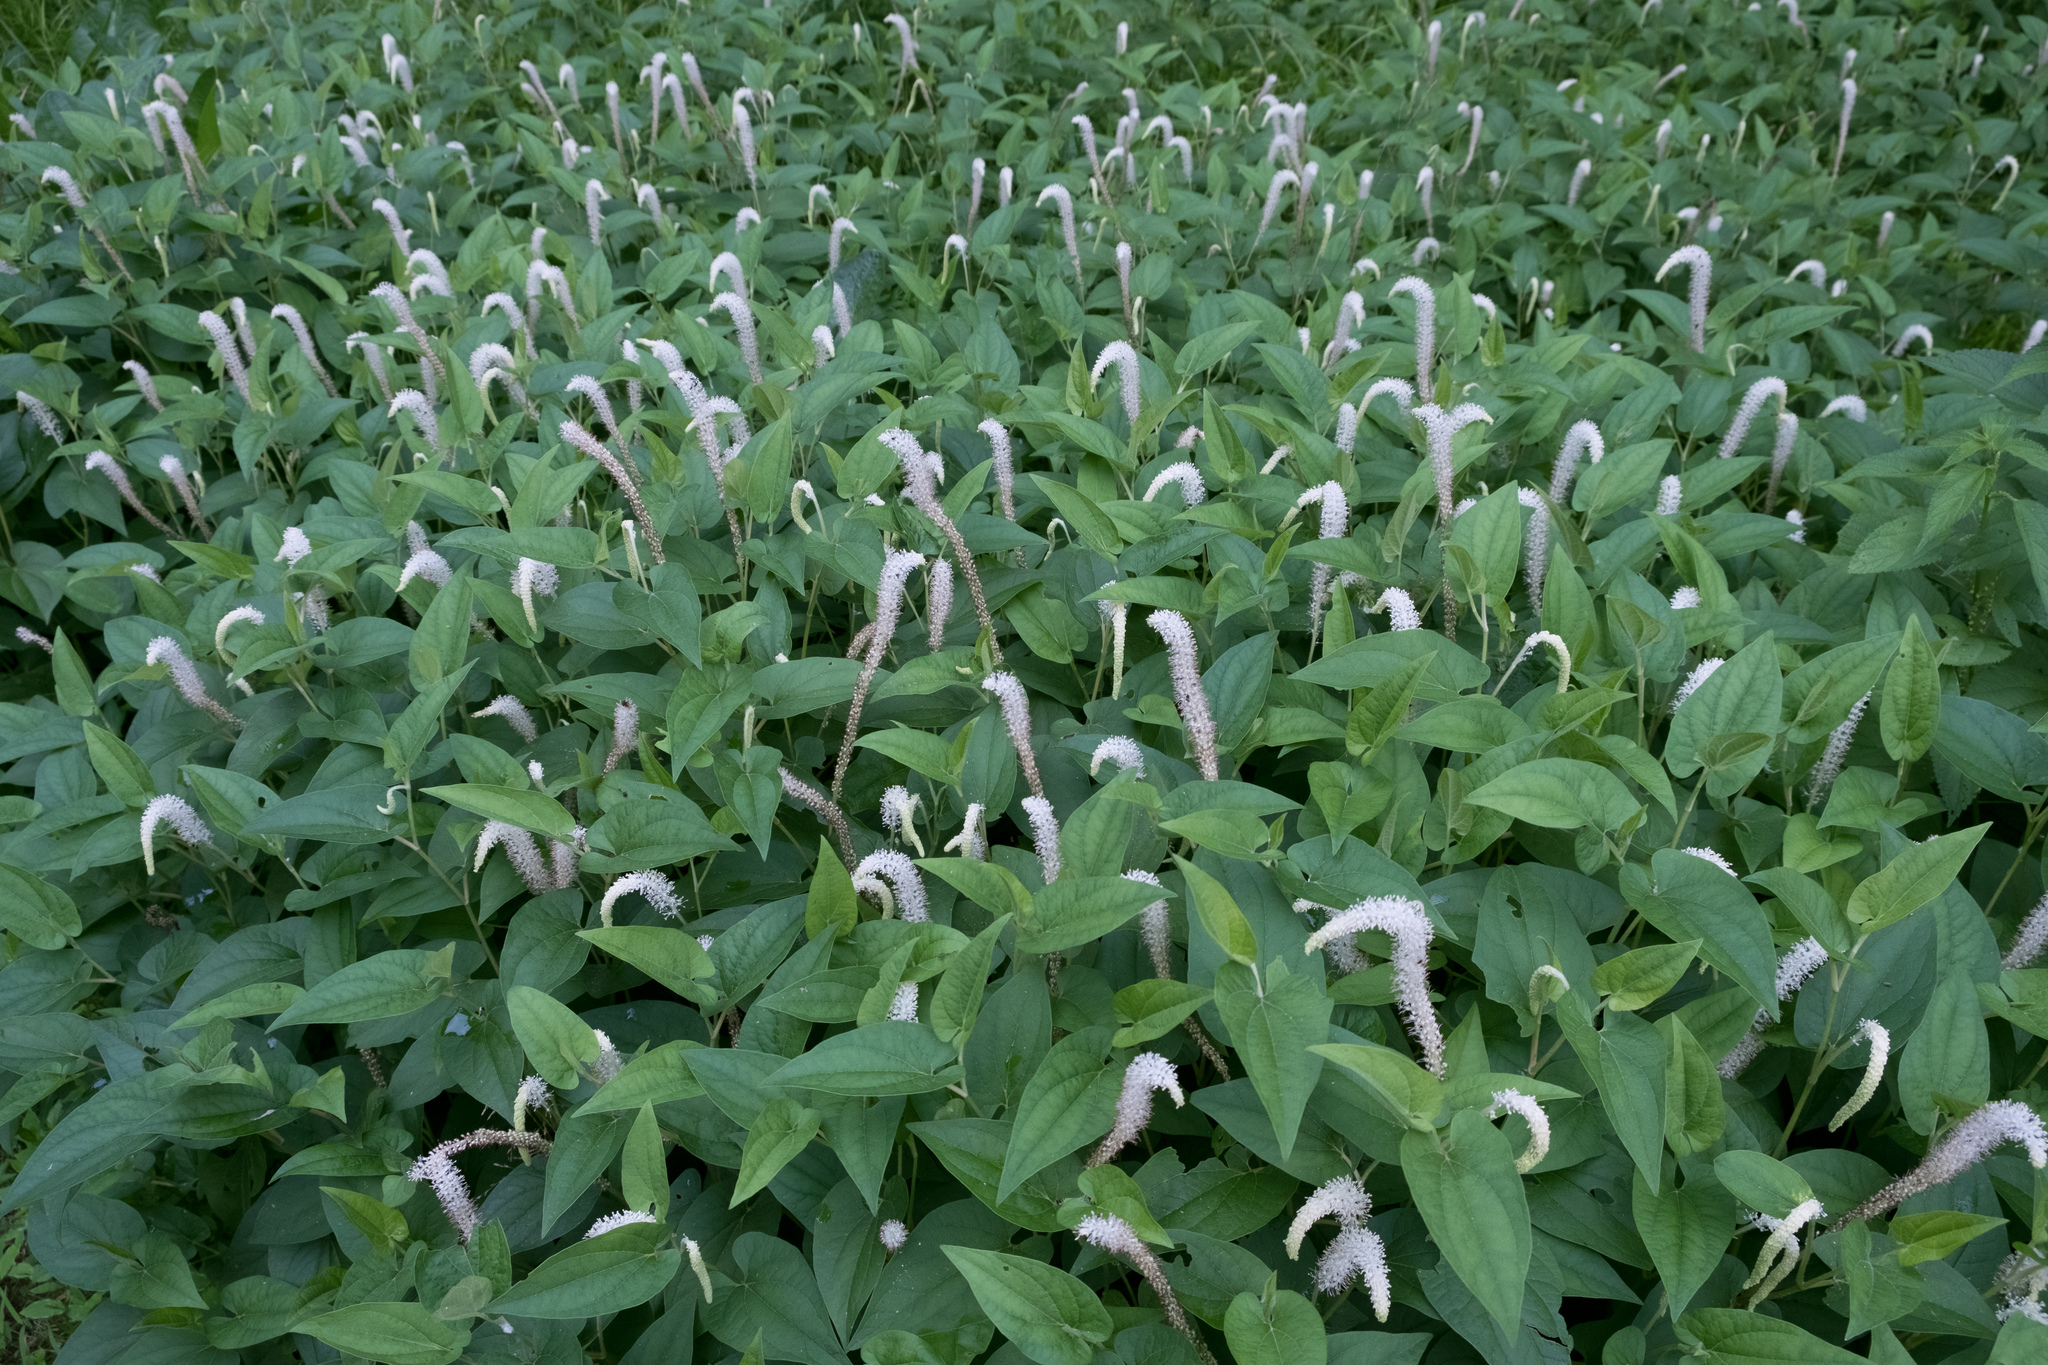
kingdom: Plantae
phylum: Tracheophyta
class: Magnoliopsida
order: Piperales
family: Saururaceae
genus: Saururus
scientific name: Saururus cernuus
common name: Lizard's-tail
